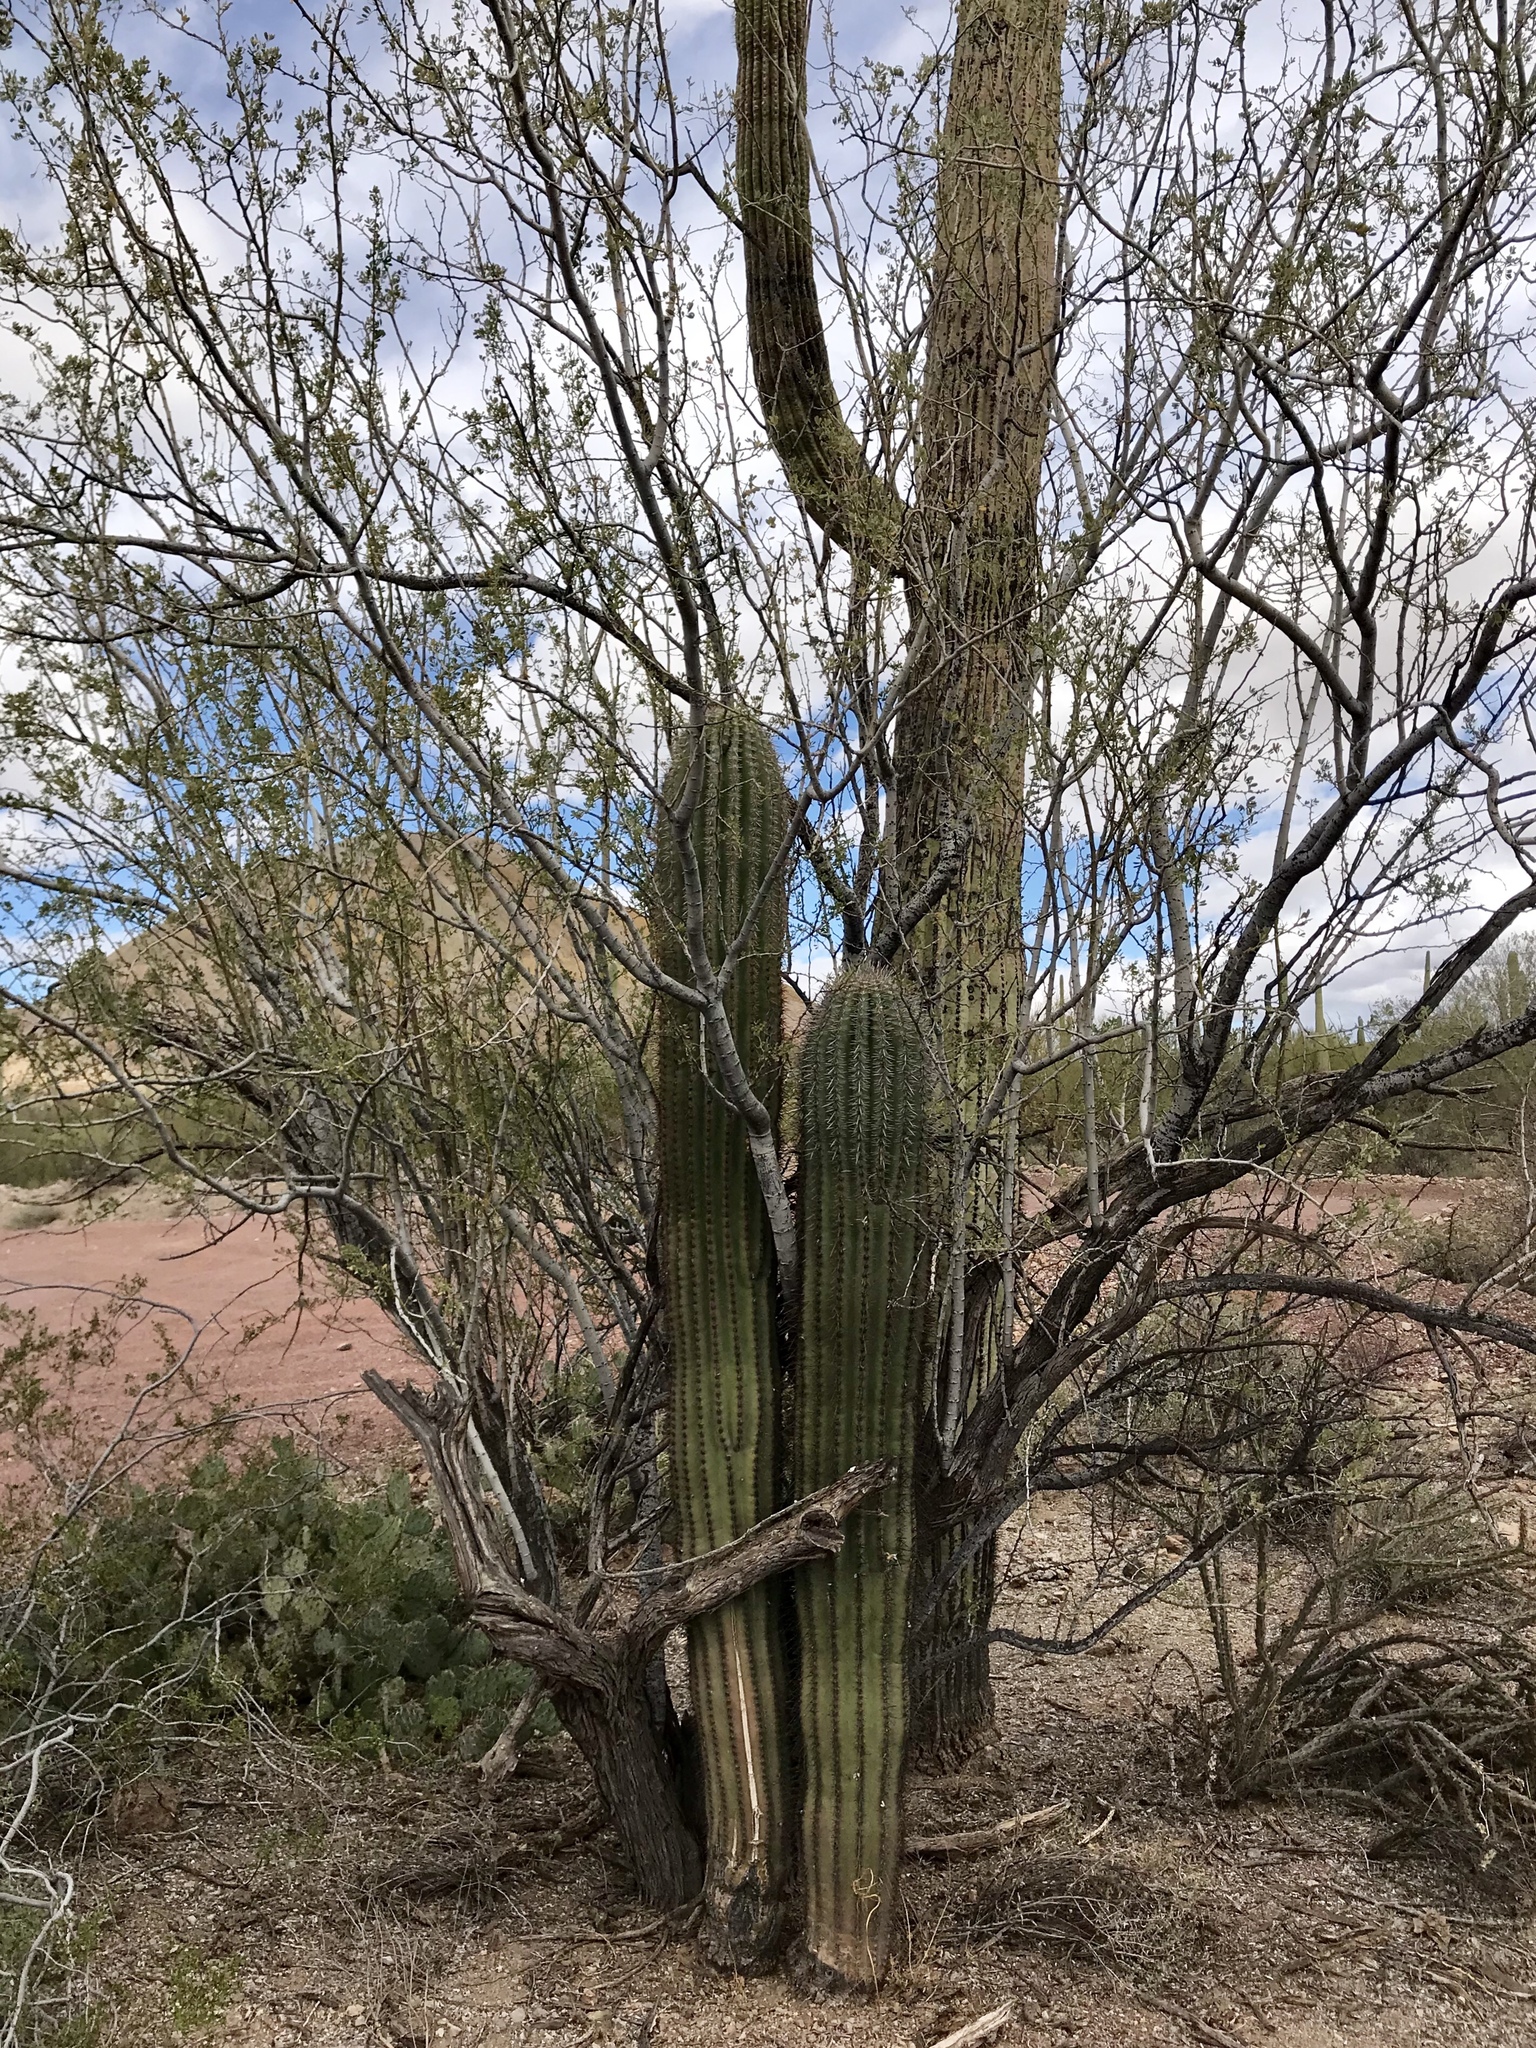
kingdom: Plantae
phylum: Tracheophyta
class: Magnoliopsida
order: Caryophyllales
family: Cactaceae
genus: Carnegiea
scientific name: Carnegiea gigantea
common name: Saguaro
